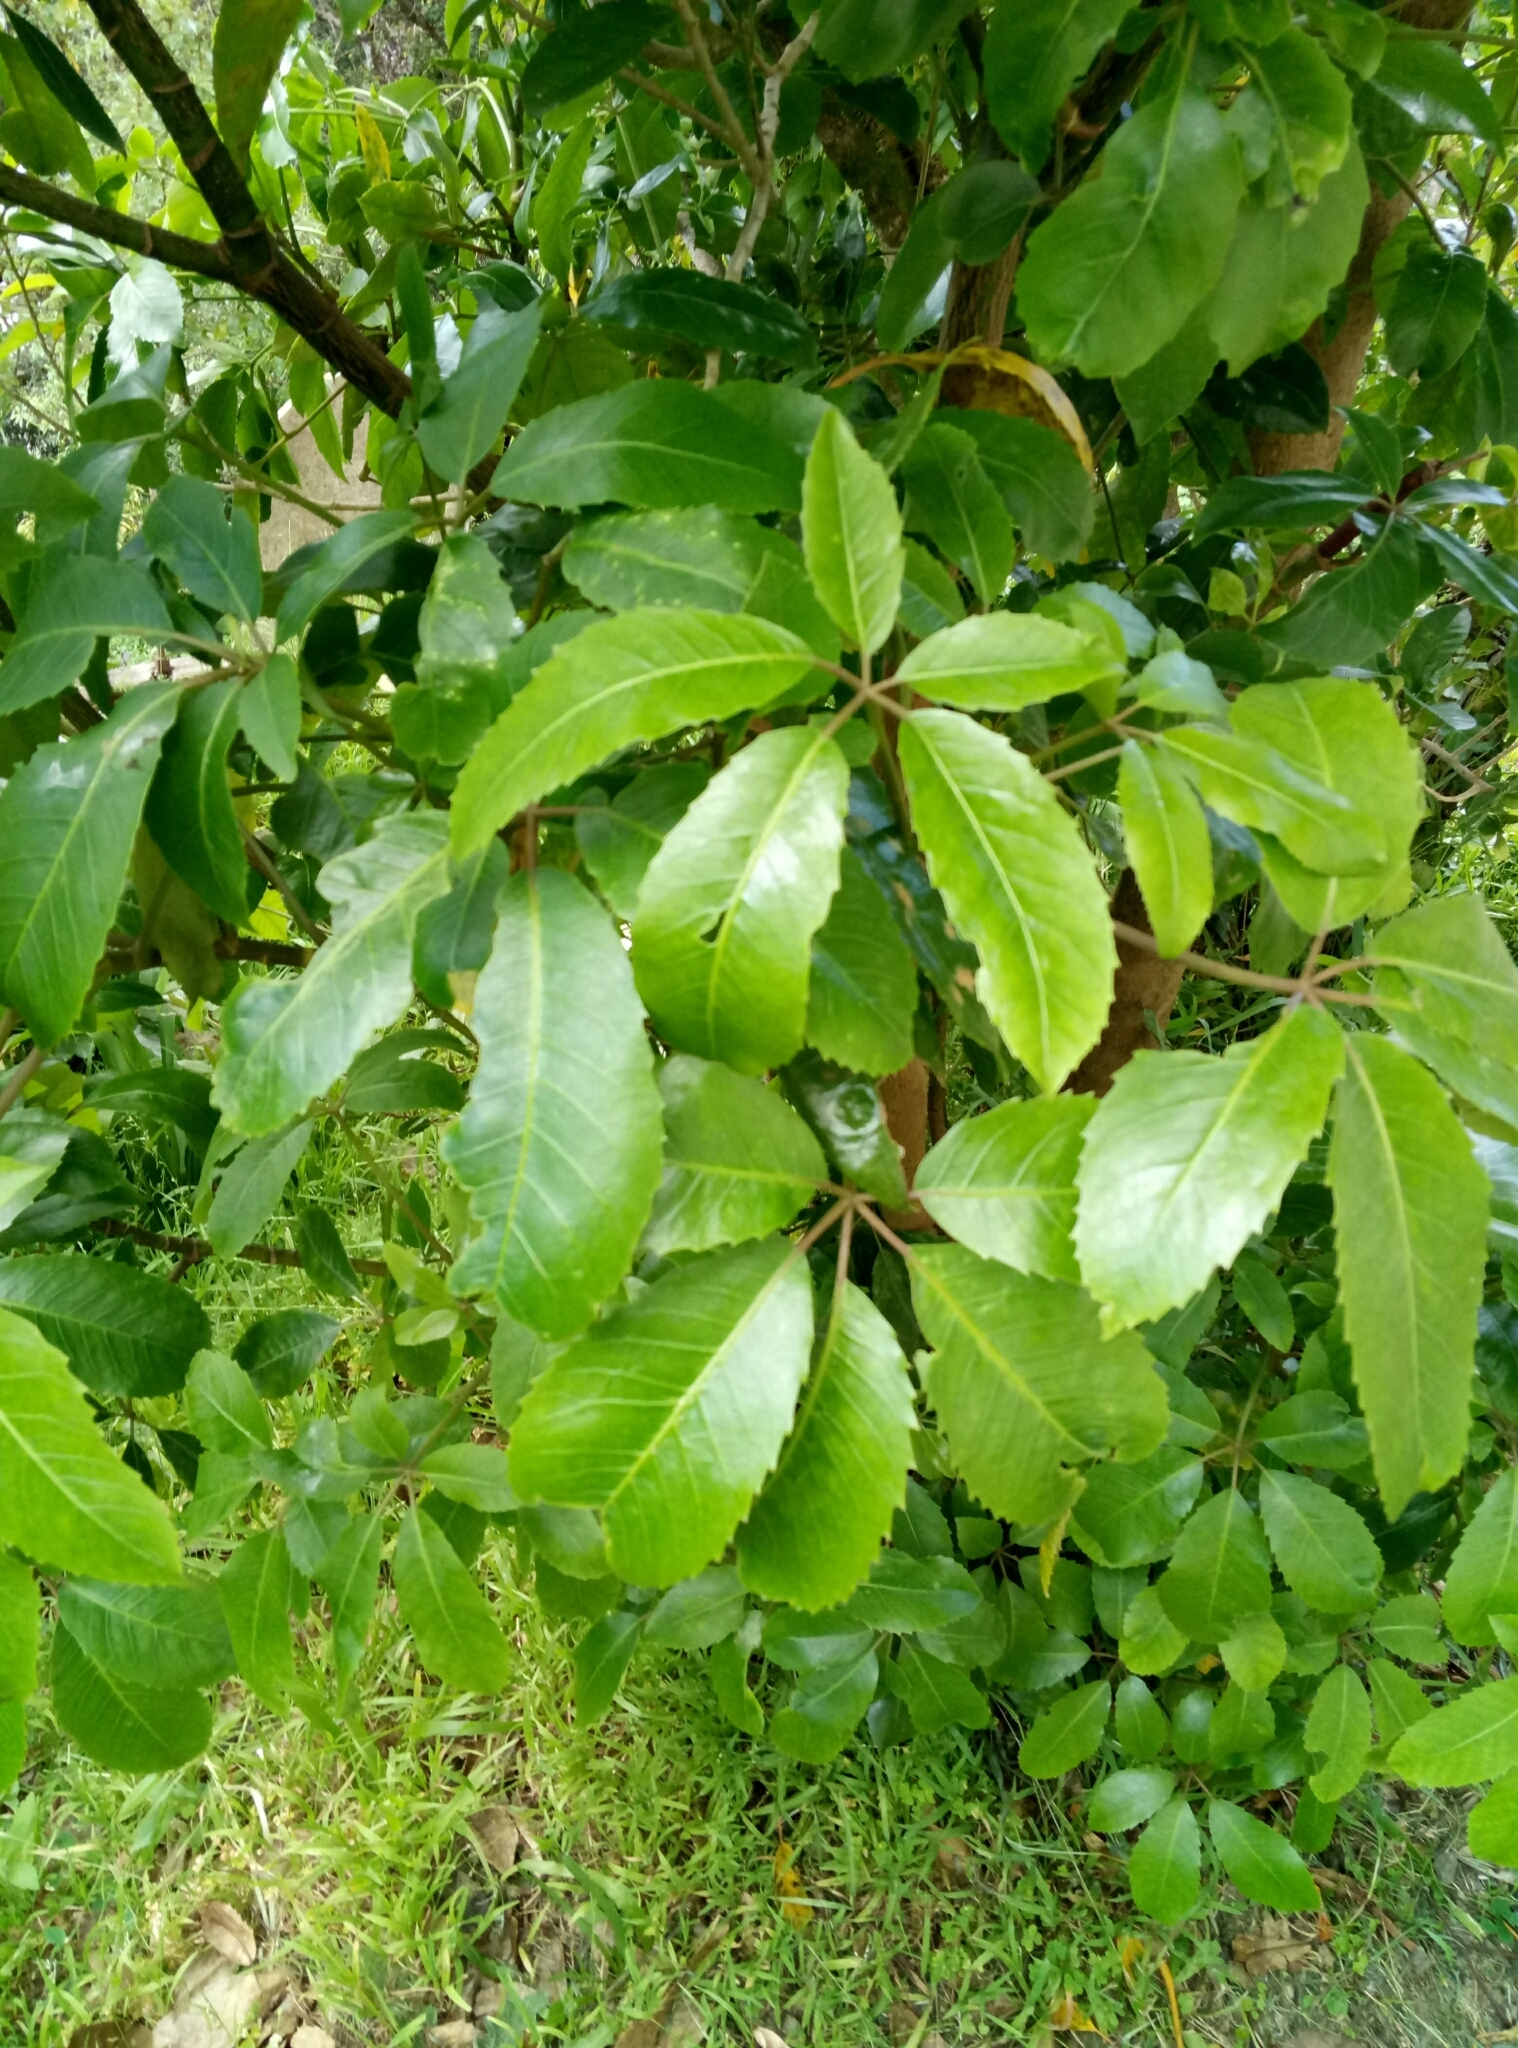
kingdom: Plantae
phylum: Tracheophyta
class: Magnoliopsida
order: Apiales
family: Araliaceae
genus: Neopanax
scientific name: Neopanax arboreus
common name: Five-fingers
